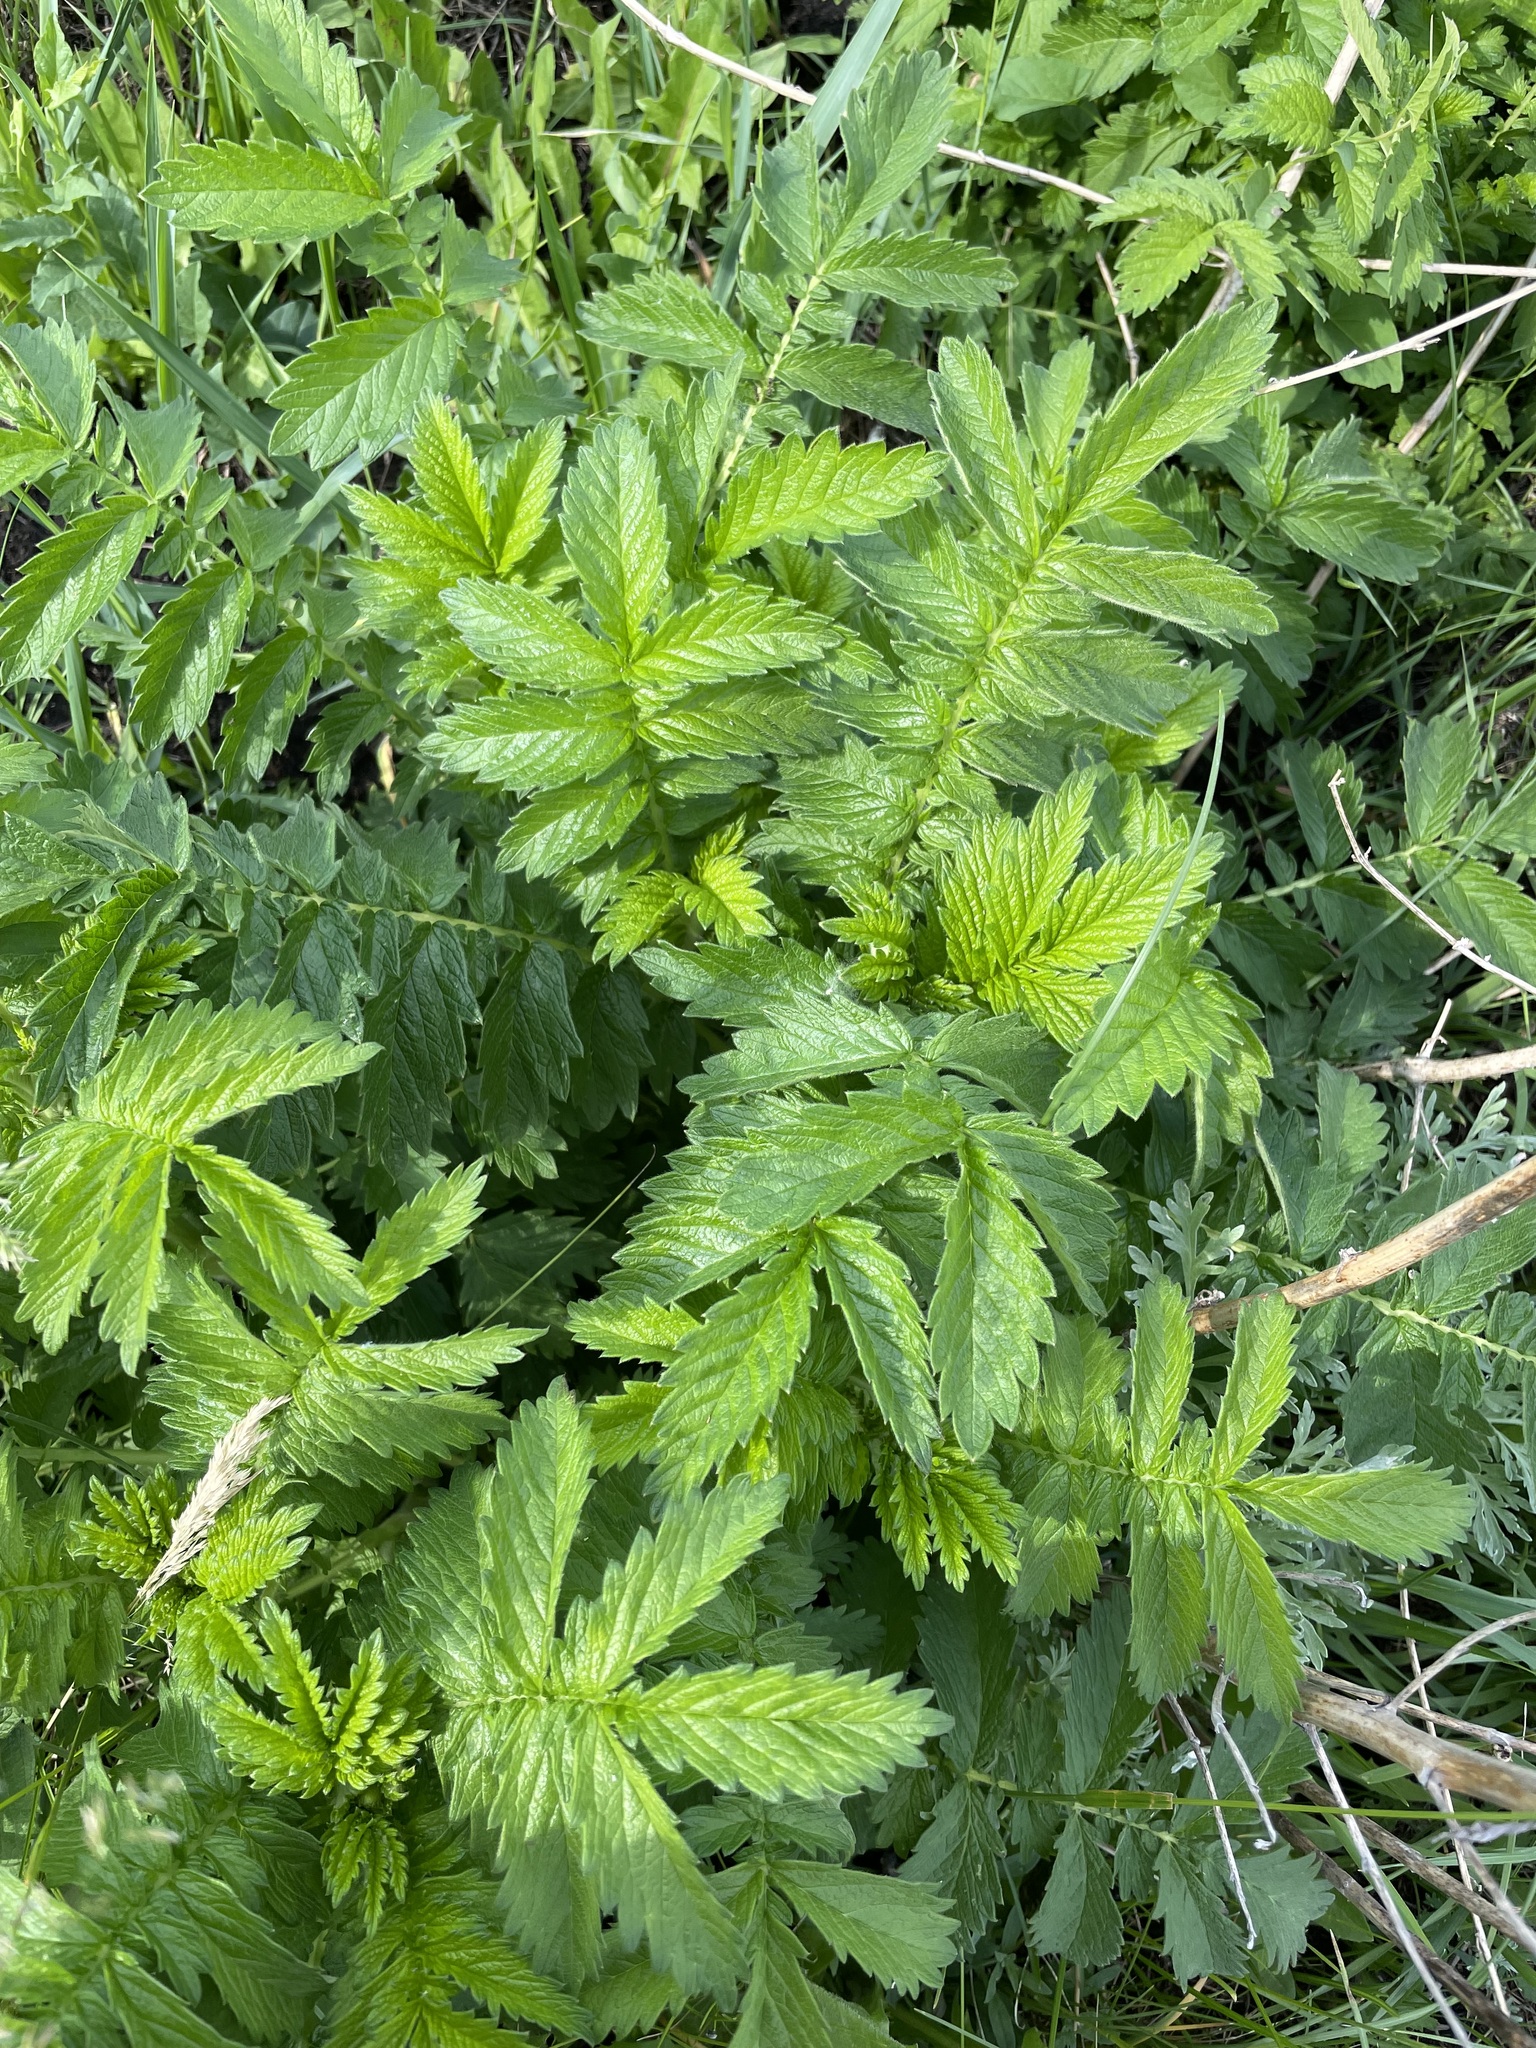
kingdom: Plantae
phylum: Tracheophyta
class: Magnoliopsida
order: Rosales
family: Rosaceae
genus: Agrimonia
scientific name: Agrimonia eupatoria
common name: Agrimony
